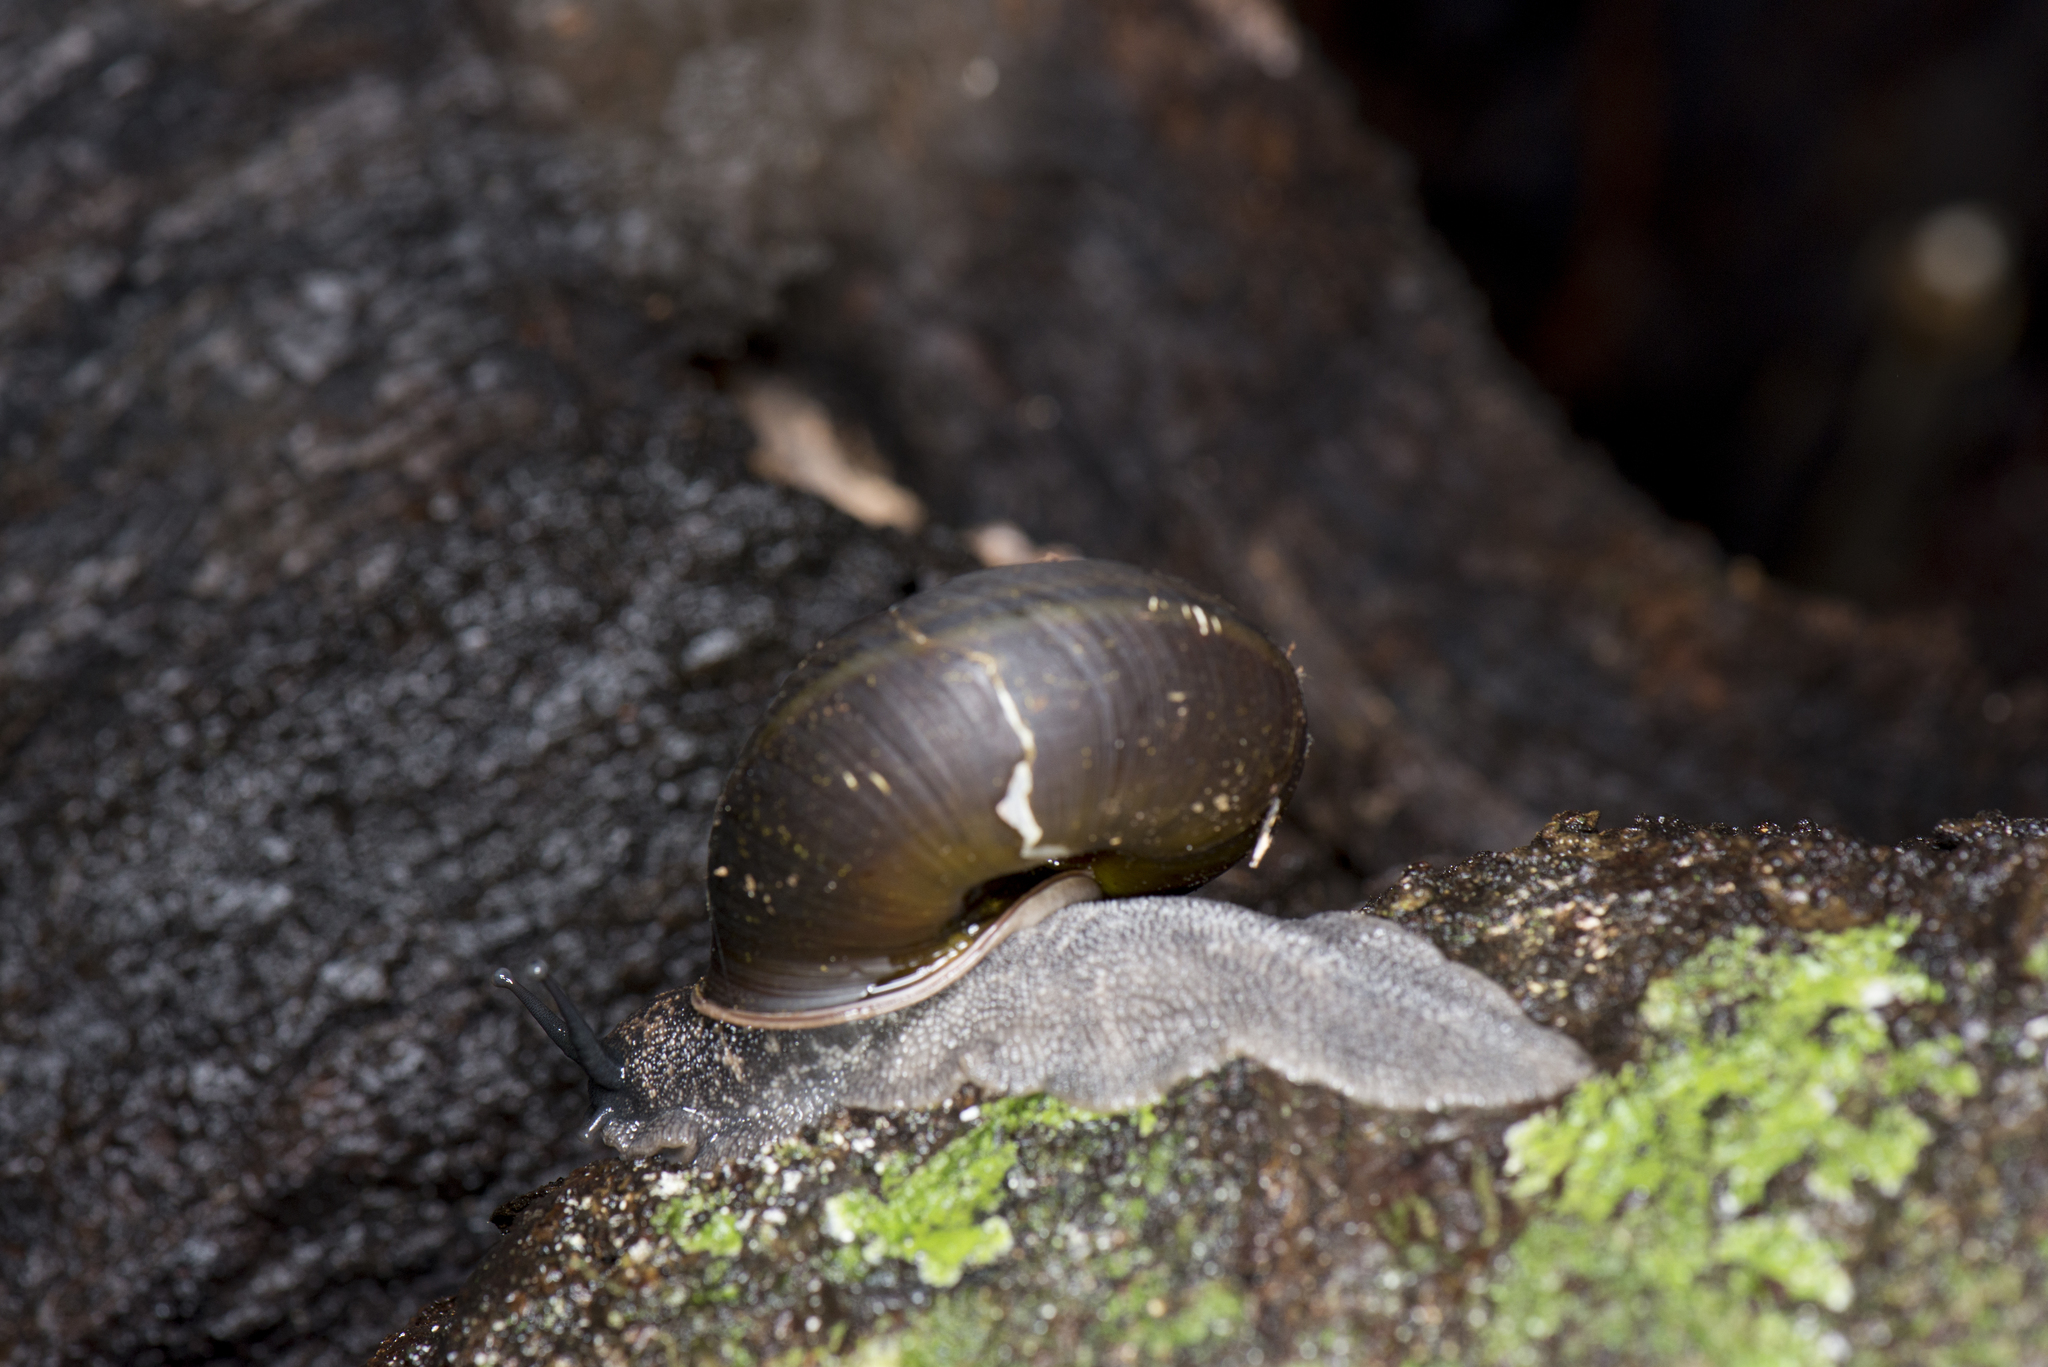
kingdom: Animalia
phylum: Mollusca
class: Gastropoda
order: Stylommatophora
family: Camaenidae
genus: Satsuma
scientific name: Satsuma arisana
